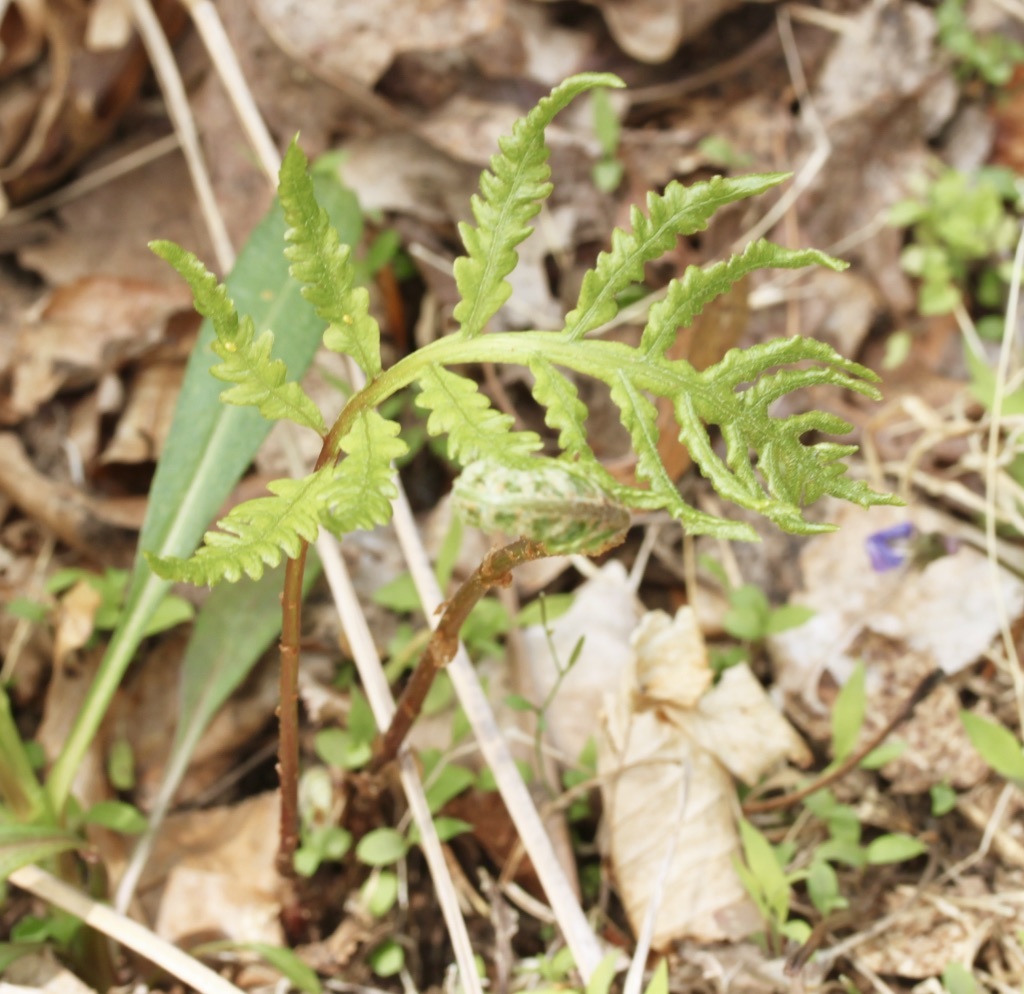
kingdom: Plantae
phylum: Tracheophyta
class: Polypodiopsida
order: Polypodiales
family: Onocleaceae
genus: Onoclea
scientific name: Onoclea sensibilis
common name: Sensitive fern
